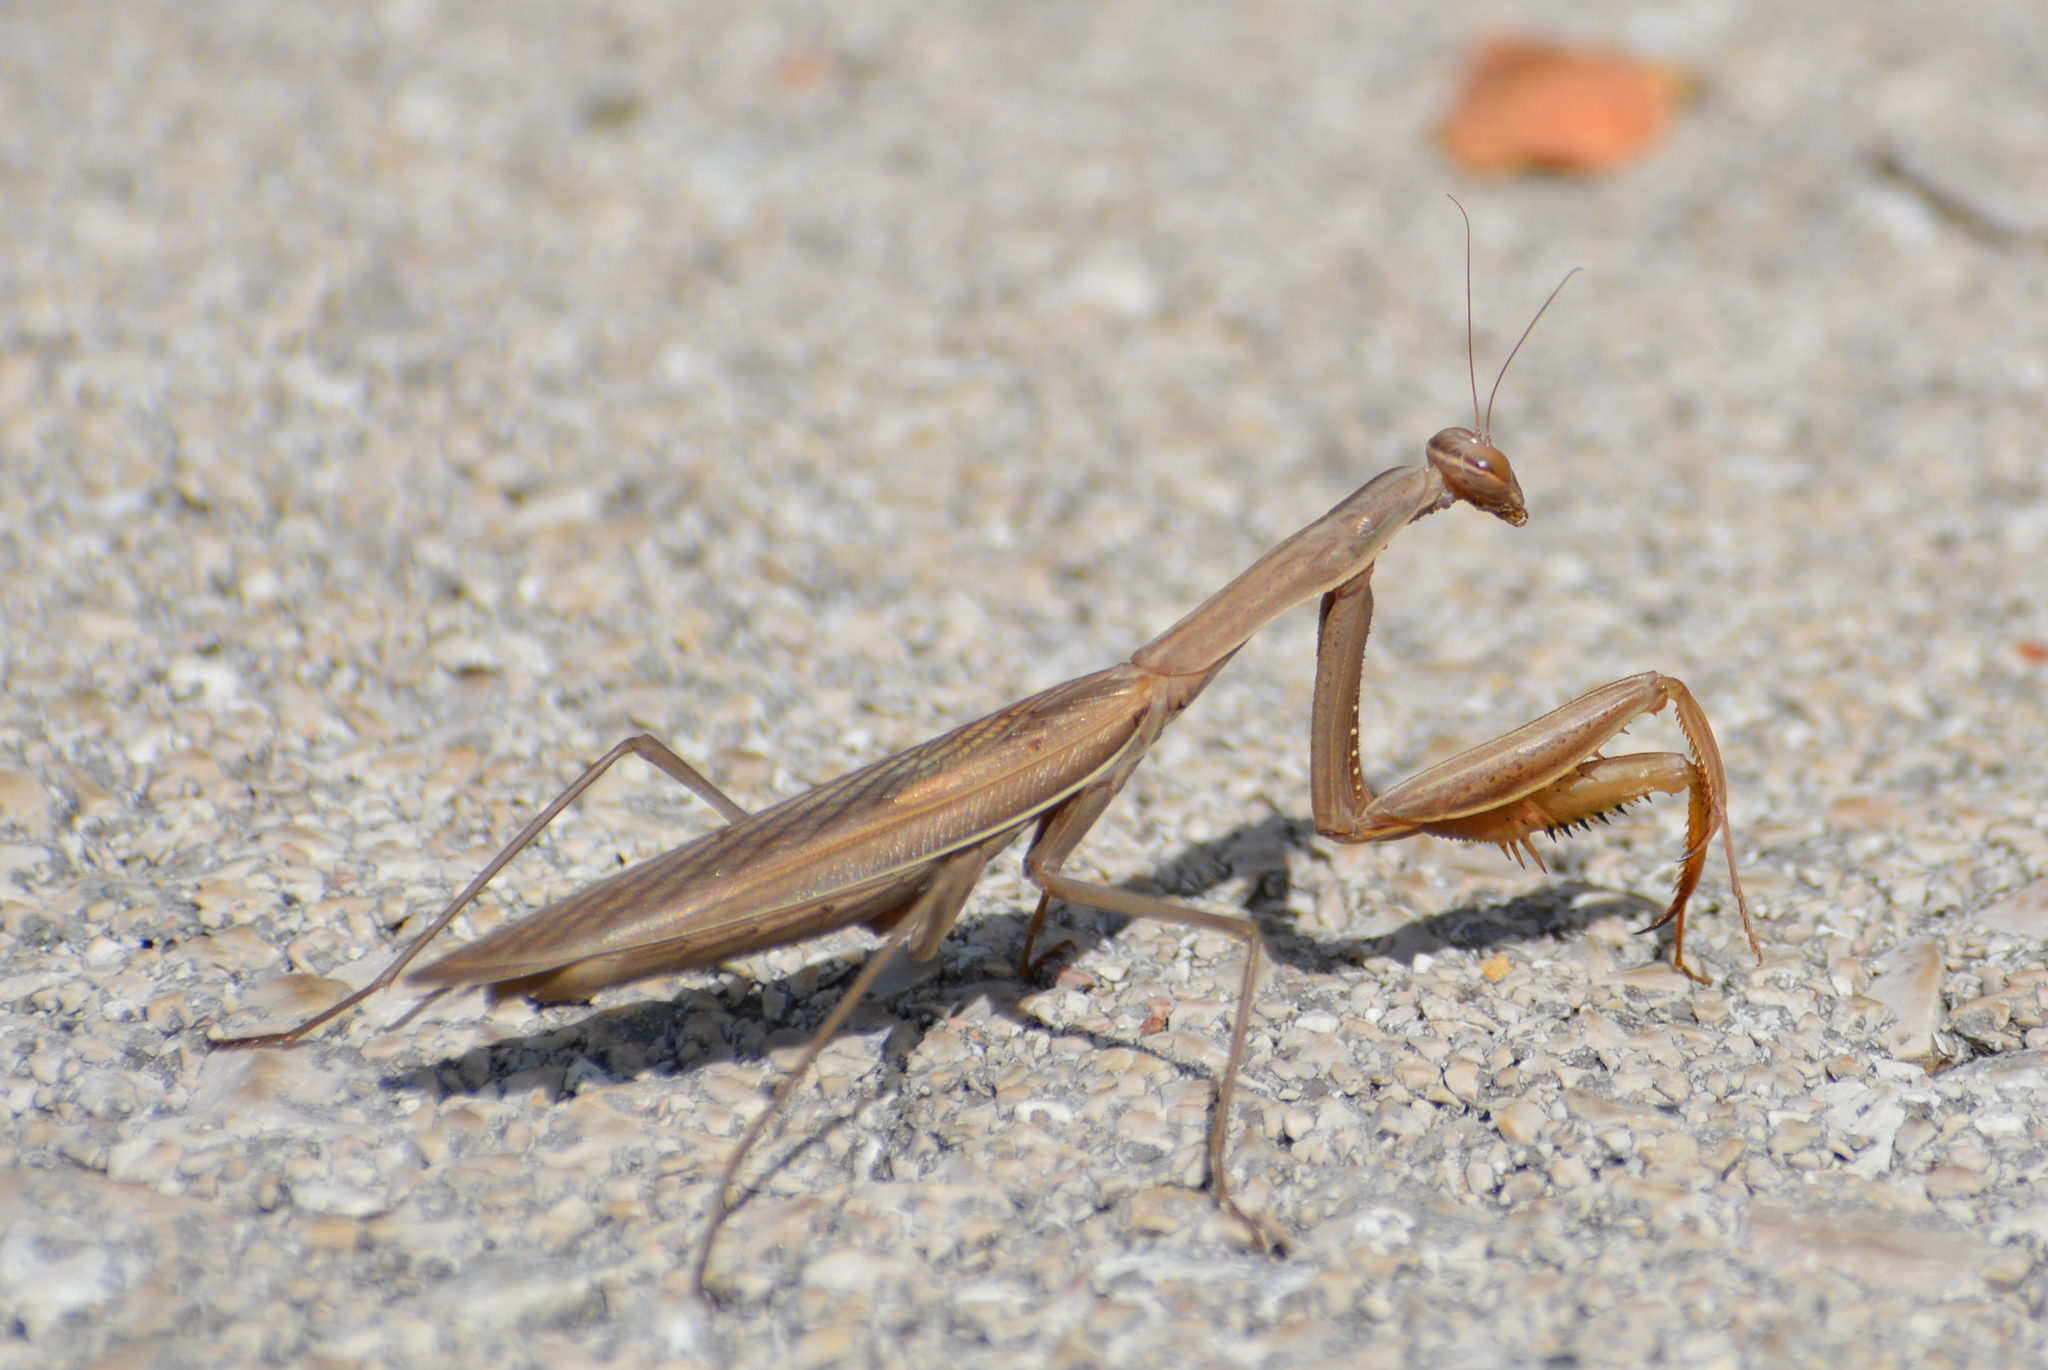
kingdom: Animalia
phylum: Arthropoda
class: Insecta
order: Mantodea
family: Mantidae
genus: Mantis
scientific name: Mantis religiosa
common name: Praying mantis
